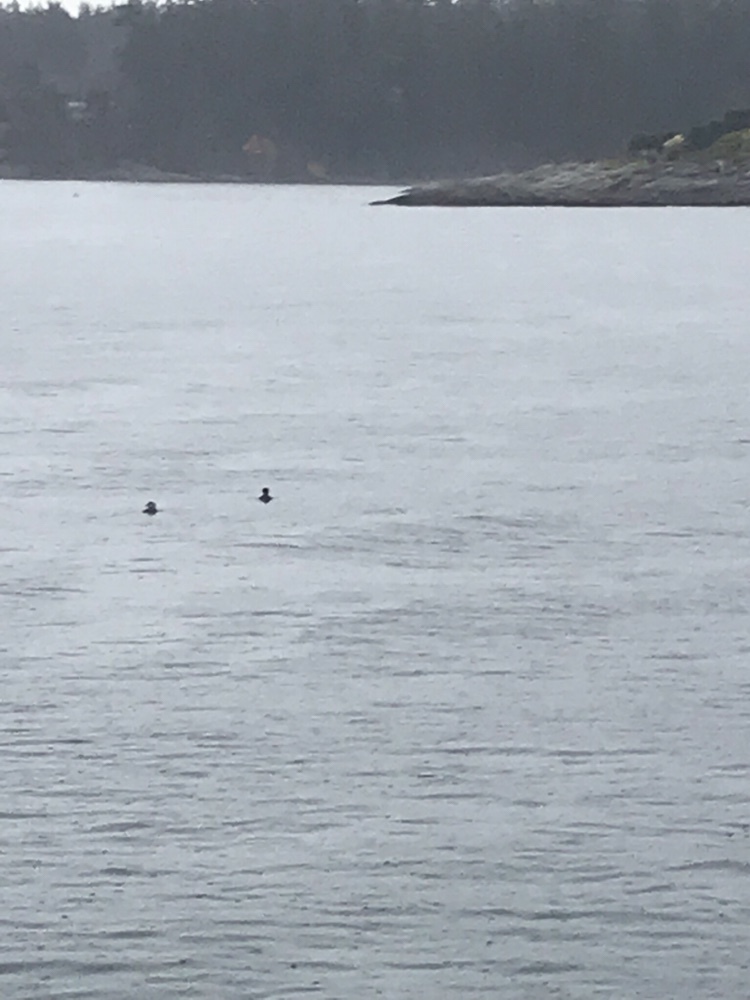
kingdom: Animalia
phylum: Chordata
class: Aves
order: Anseriformes
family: Anatidae
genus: Lophodytes
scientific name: Lophodytes cucullatus
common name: Hooded merganser
